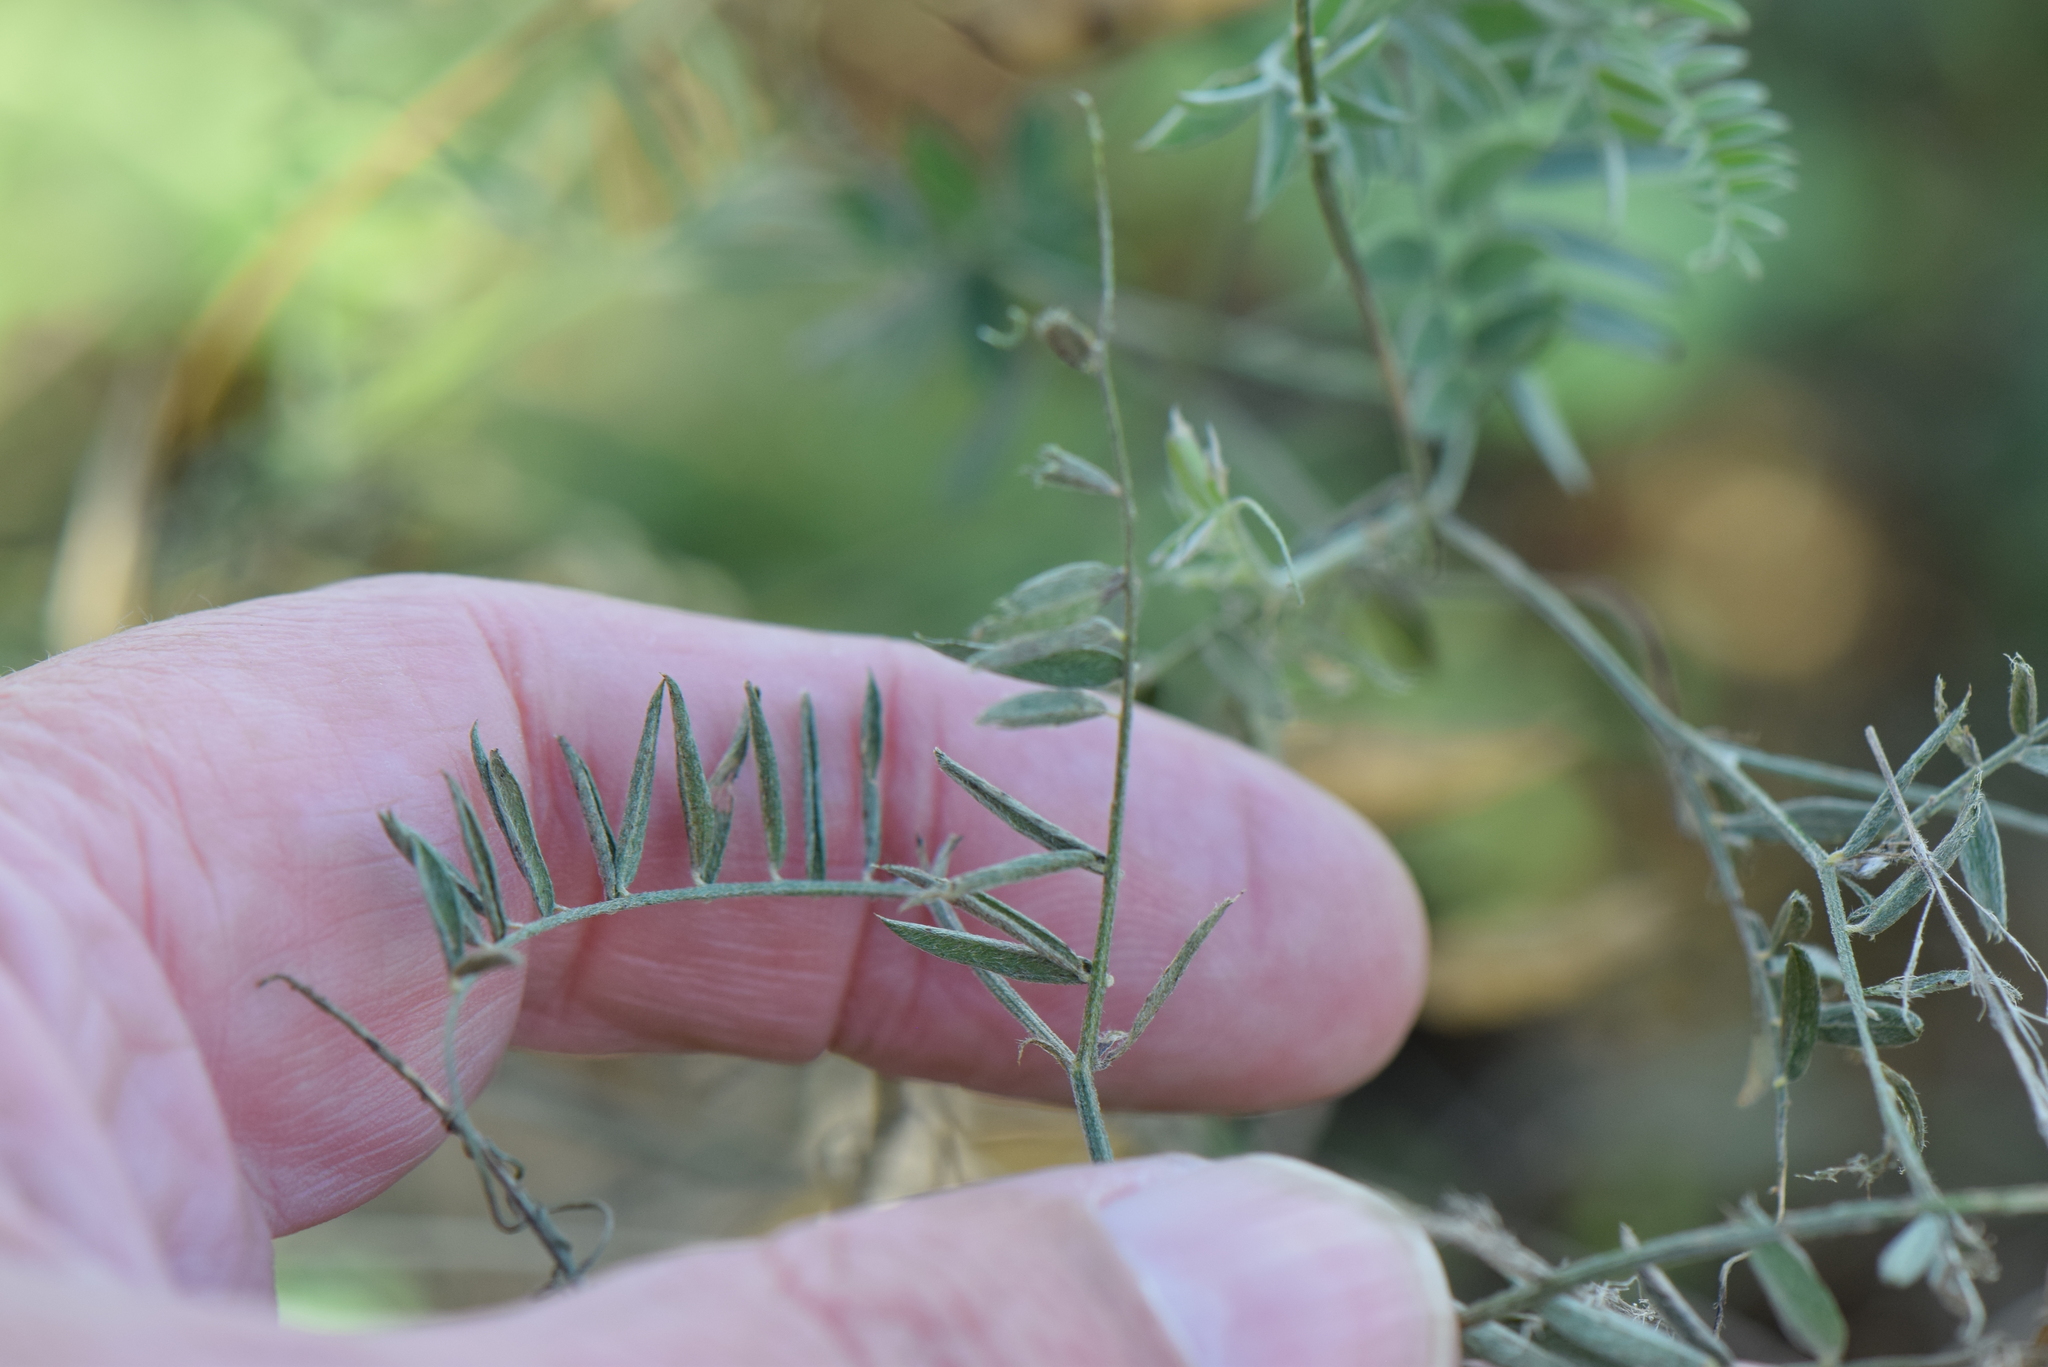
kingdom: Plantae
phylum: Tracheophyta
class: Magnoliopsida
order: Fabales
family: Fabaceae
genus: Vicia
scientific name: Vicia tetrasperma
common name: Smooth tare
